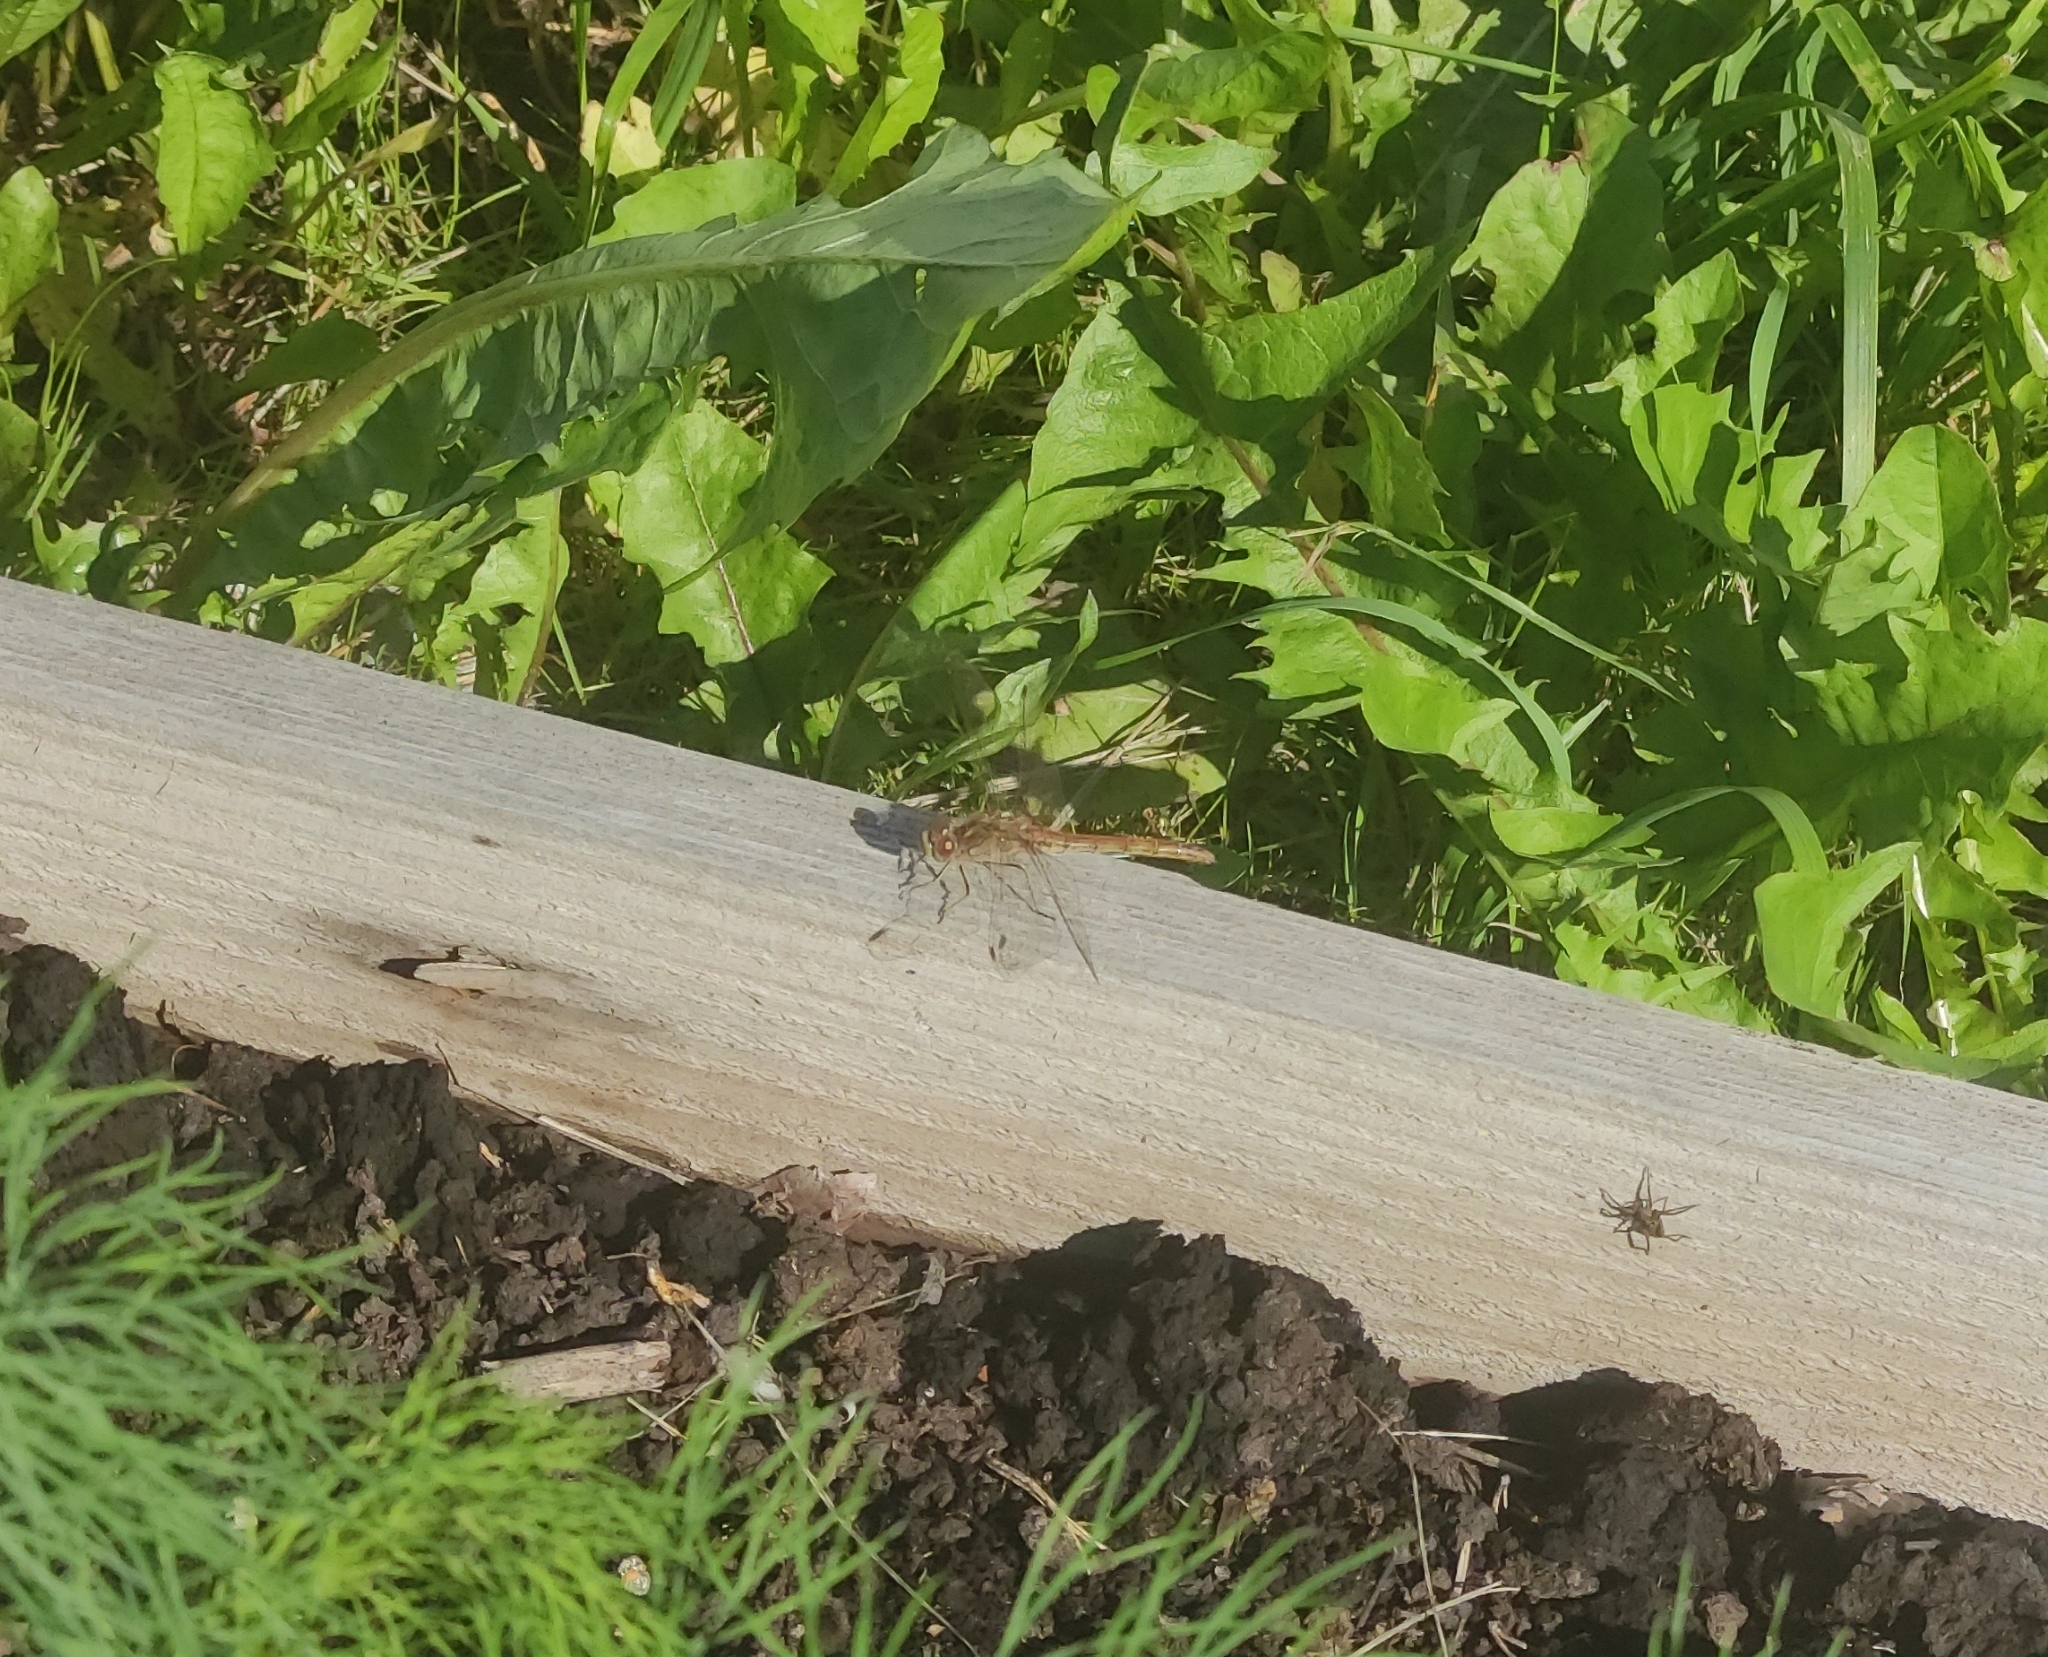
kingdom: Animalia
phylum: Arthropoda
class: Insecta
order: Odonata
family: Libellulidae
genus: Sympetrum
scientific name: Sympetrum vulgatum
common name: Vagrant darter
